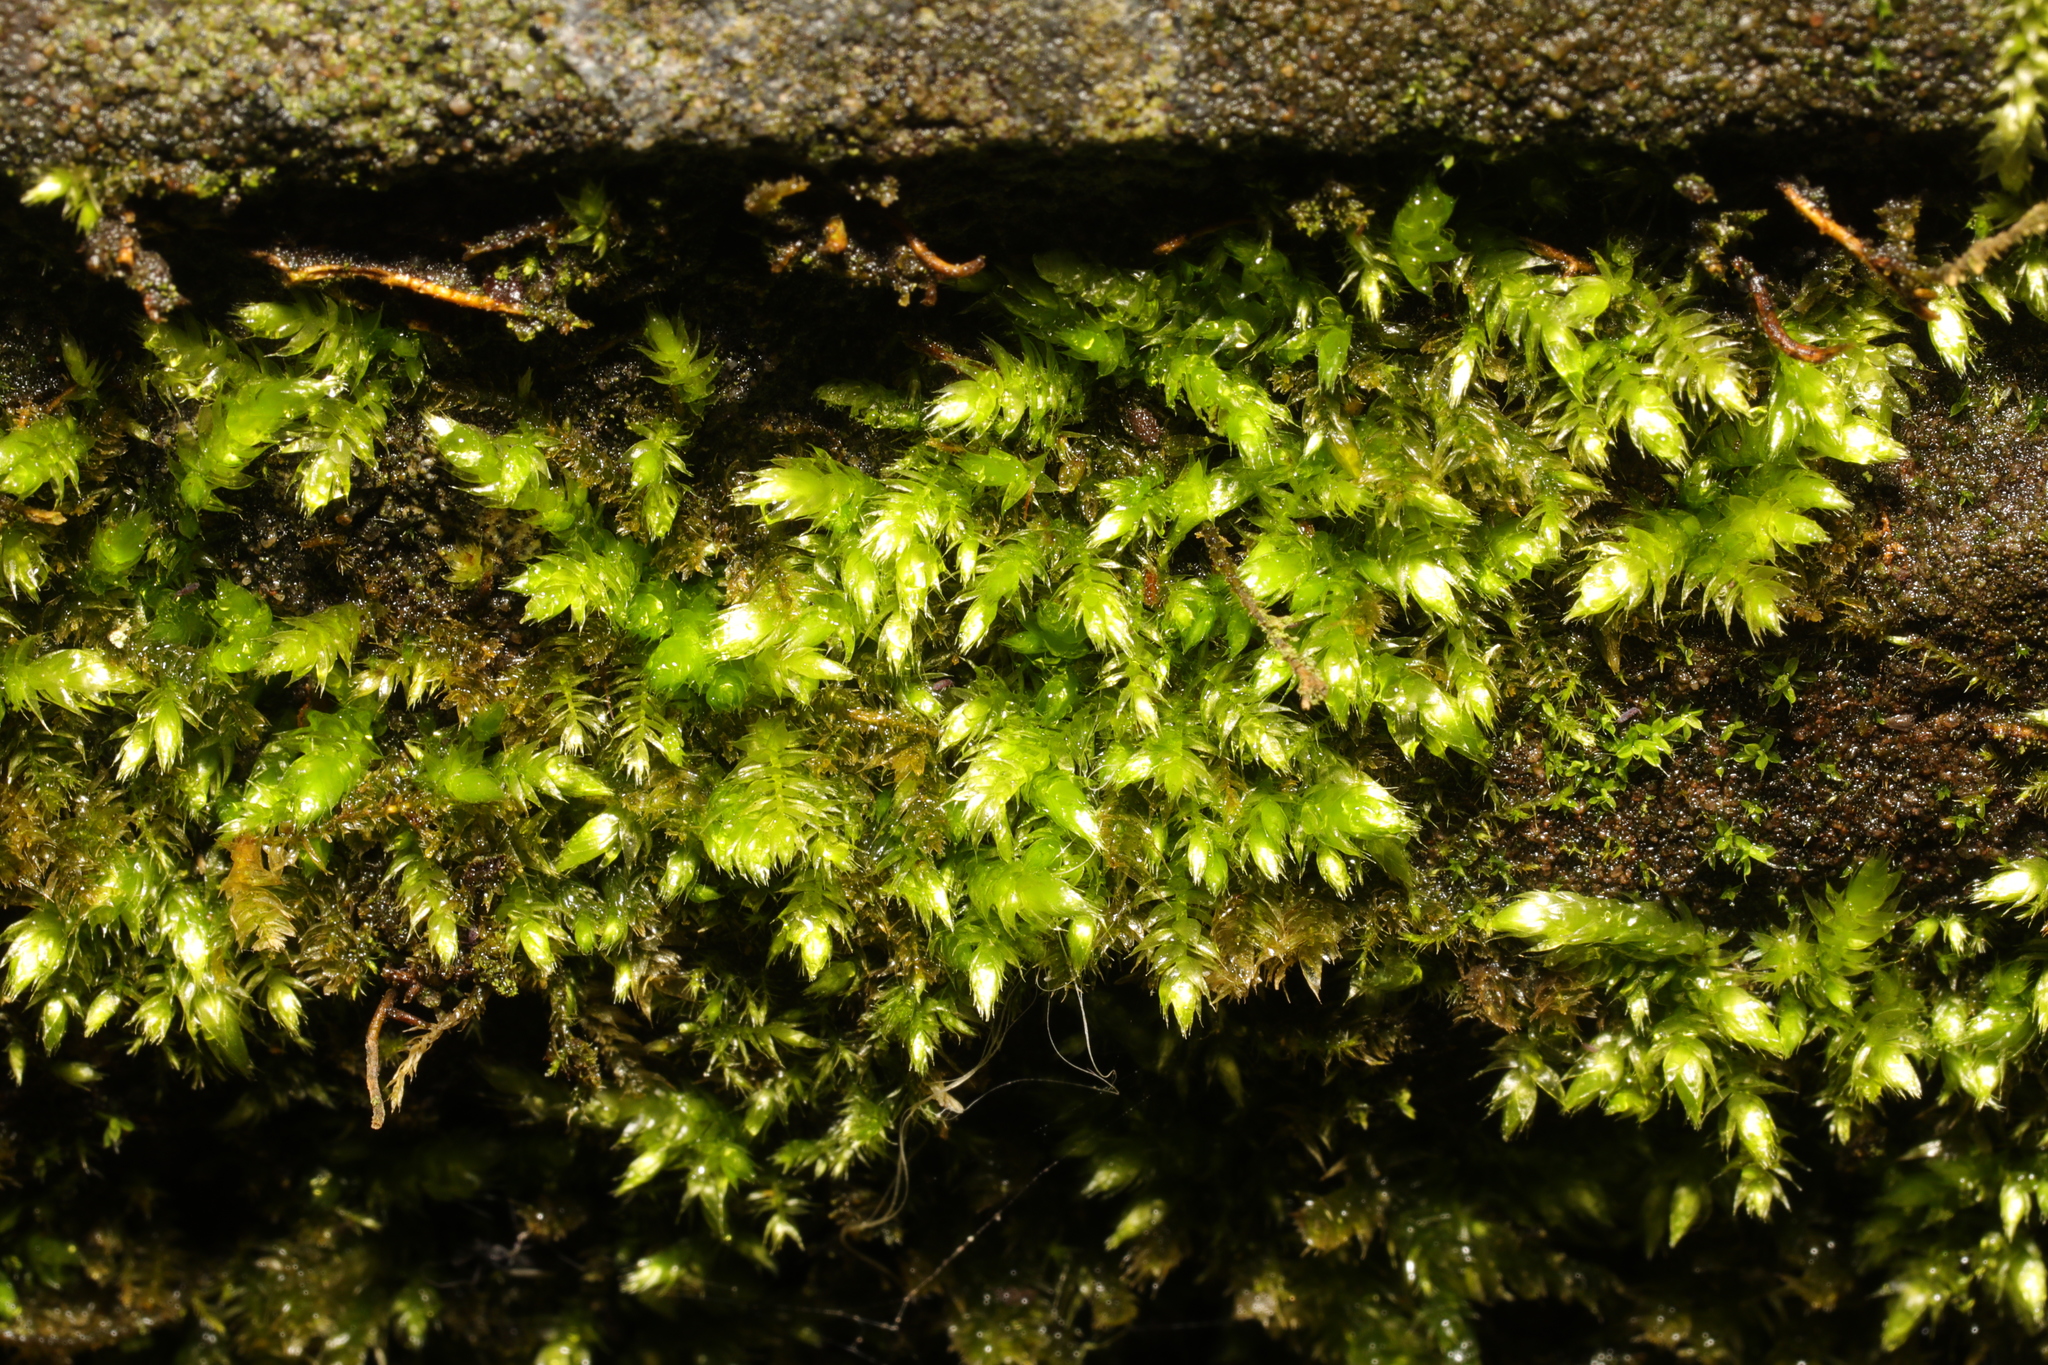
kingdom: Plantae
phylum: Bryophyta
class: Bryopsida
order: Hypnales
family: Brachytheciaceae
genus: Brachythecium
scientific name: Brachythecium rutabulum
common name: Rough-stalked feather-moss
